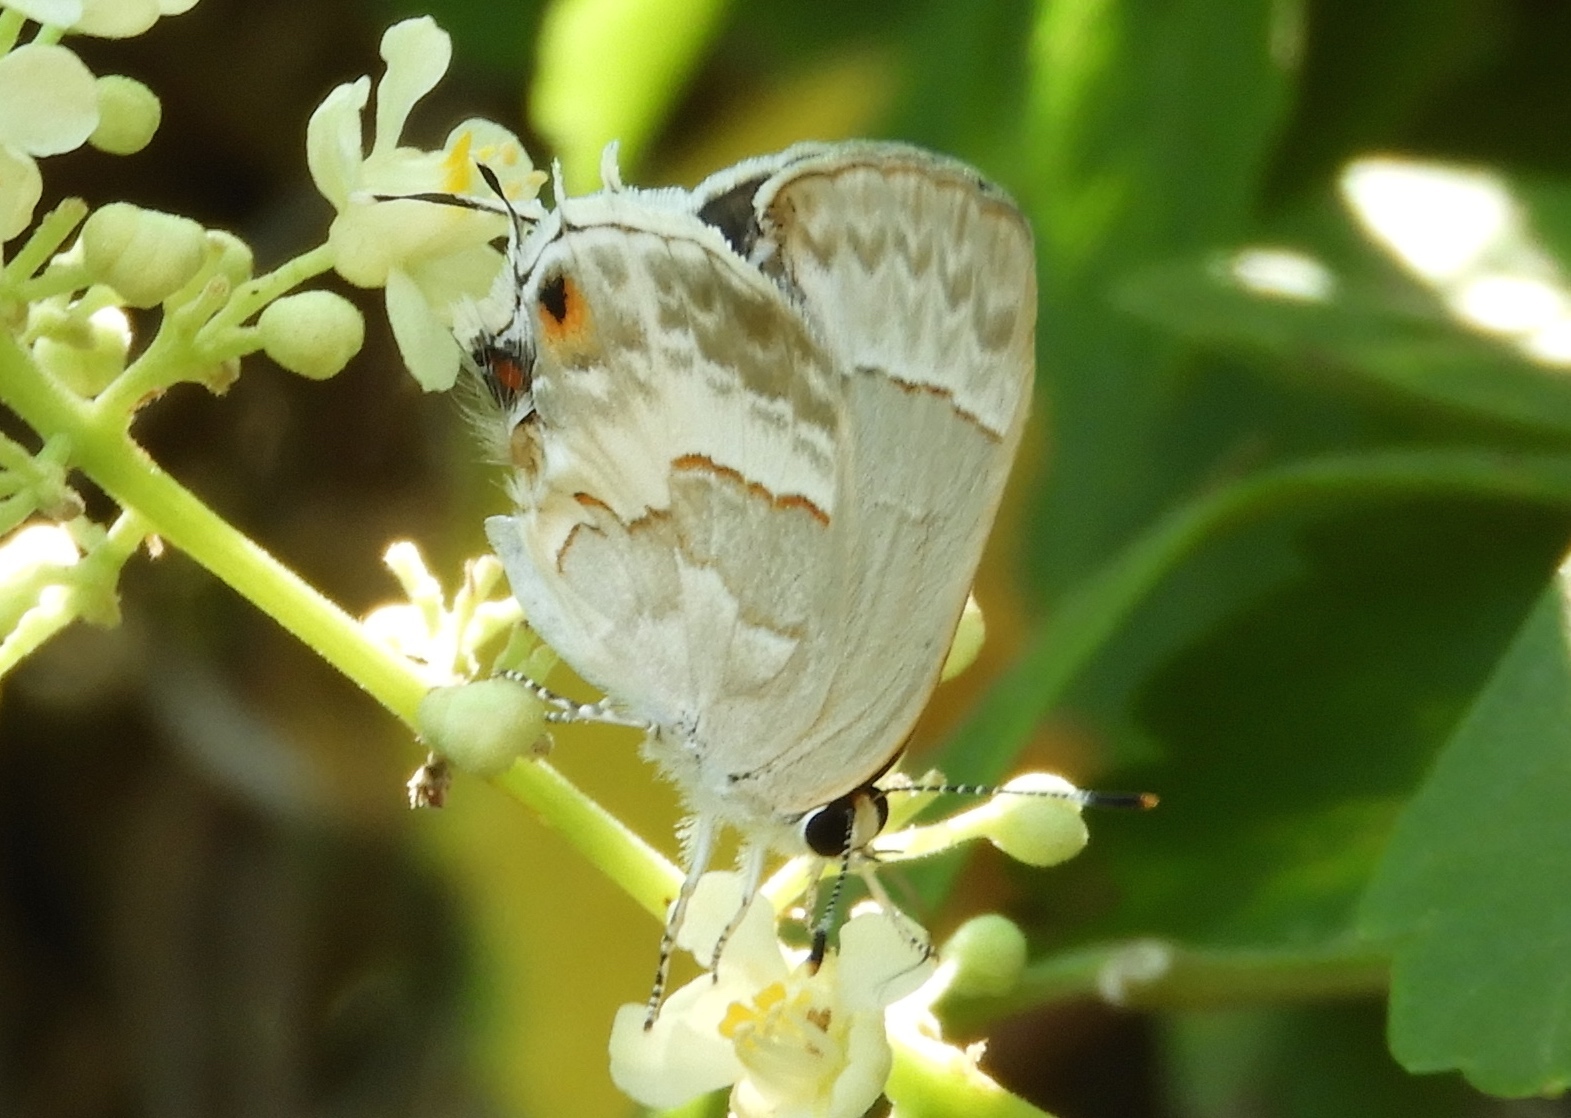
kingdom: Animalia
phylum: Arthropoda
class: Insecta
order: Lepidoptera
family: Lycaenidae
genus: Strymon
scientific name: Strymon albata
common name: White scrub-hairstreak
